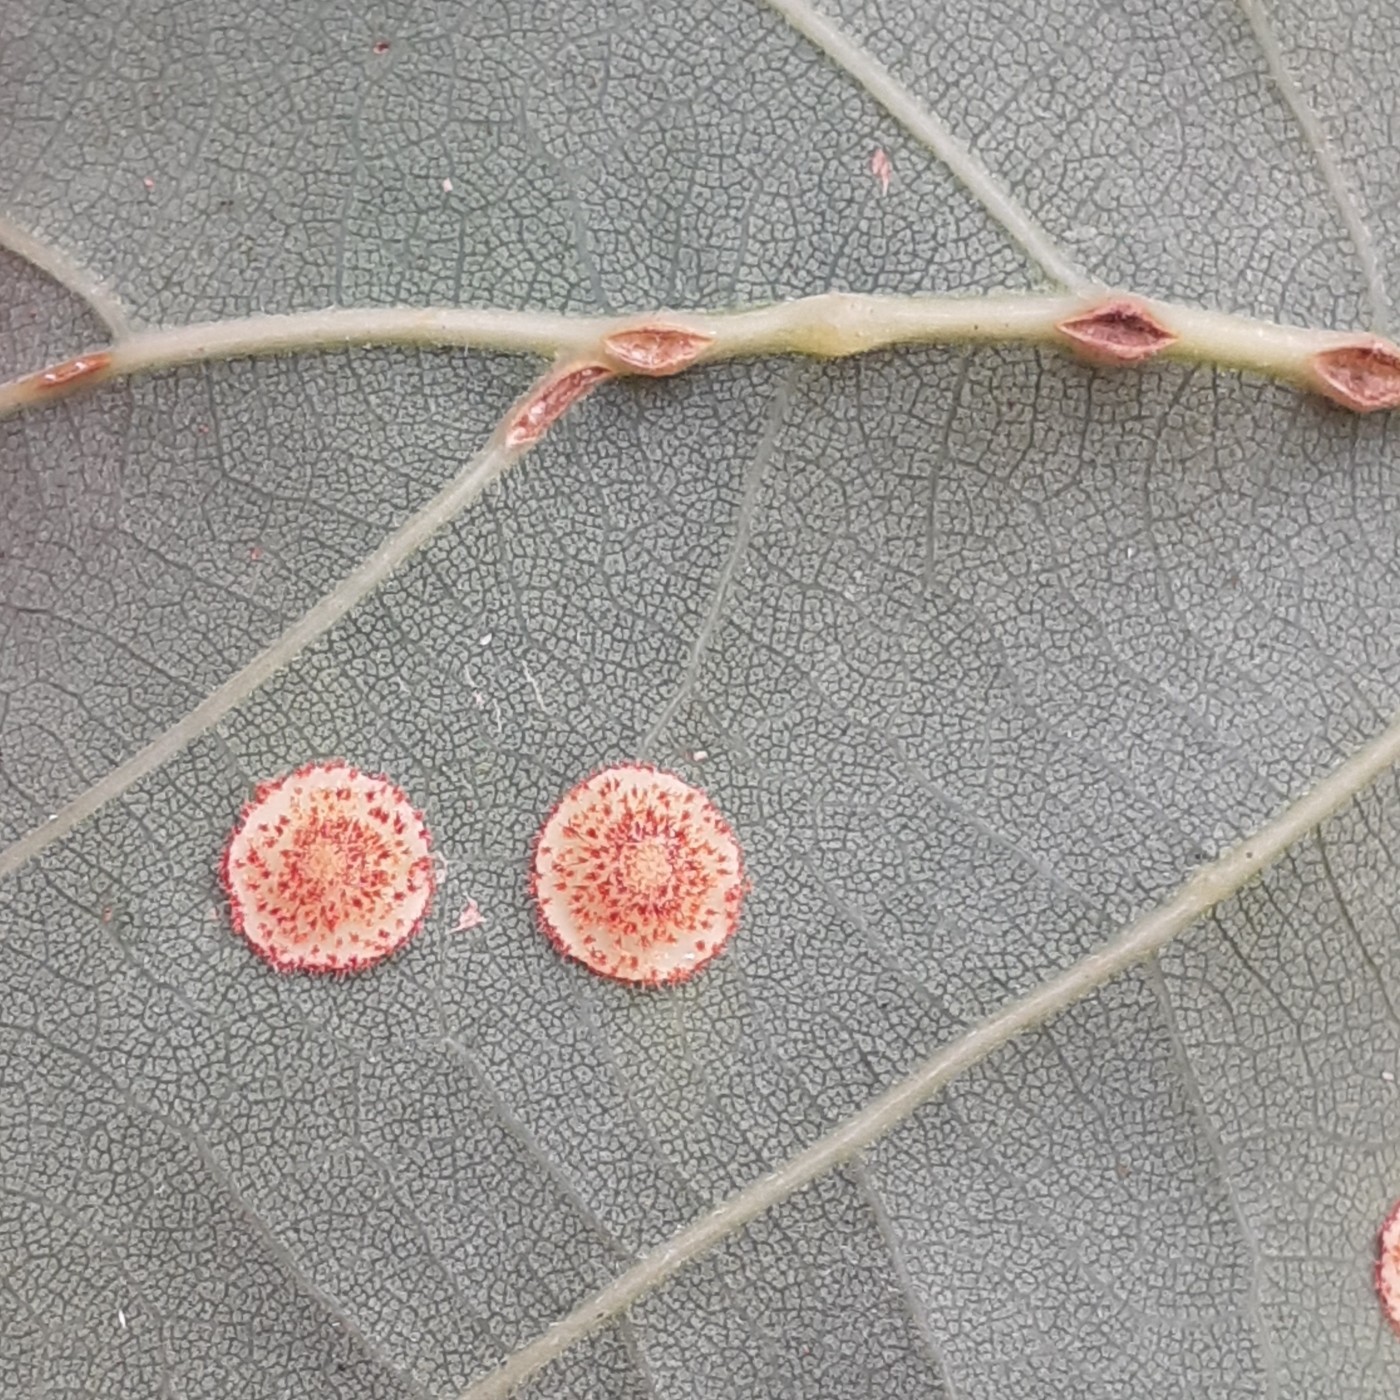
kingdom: Animalia
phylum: Arthropoda
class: Insecta
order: Hymenoptera
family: Cynipidae
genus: Neuroterus
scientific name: Neuroterus quercusbaccarum
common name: Common spangle gall
